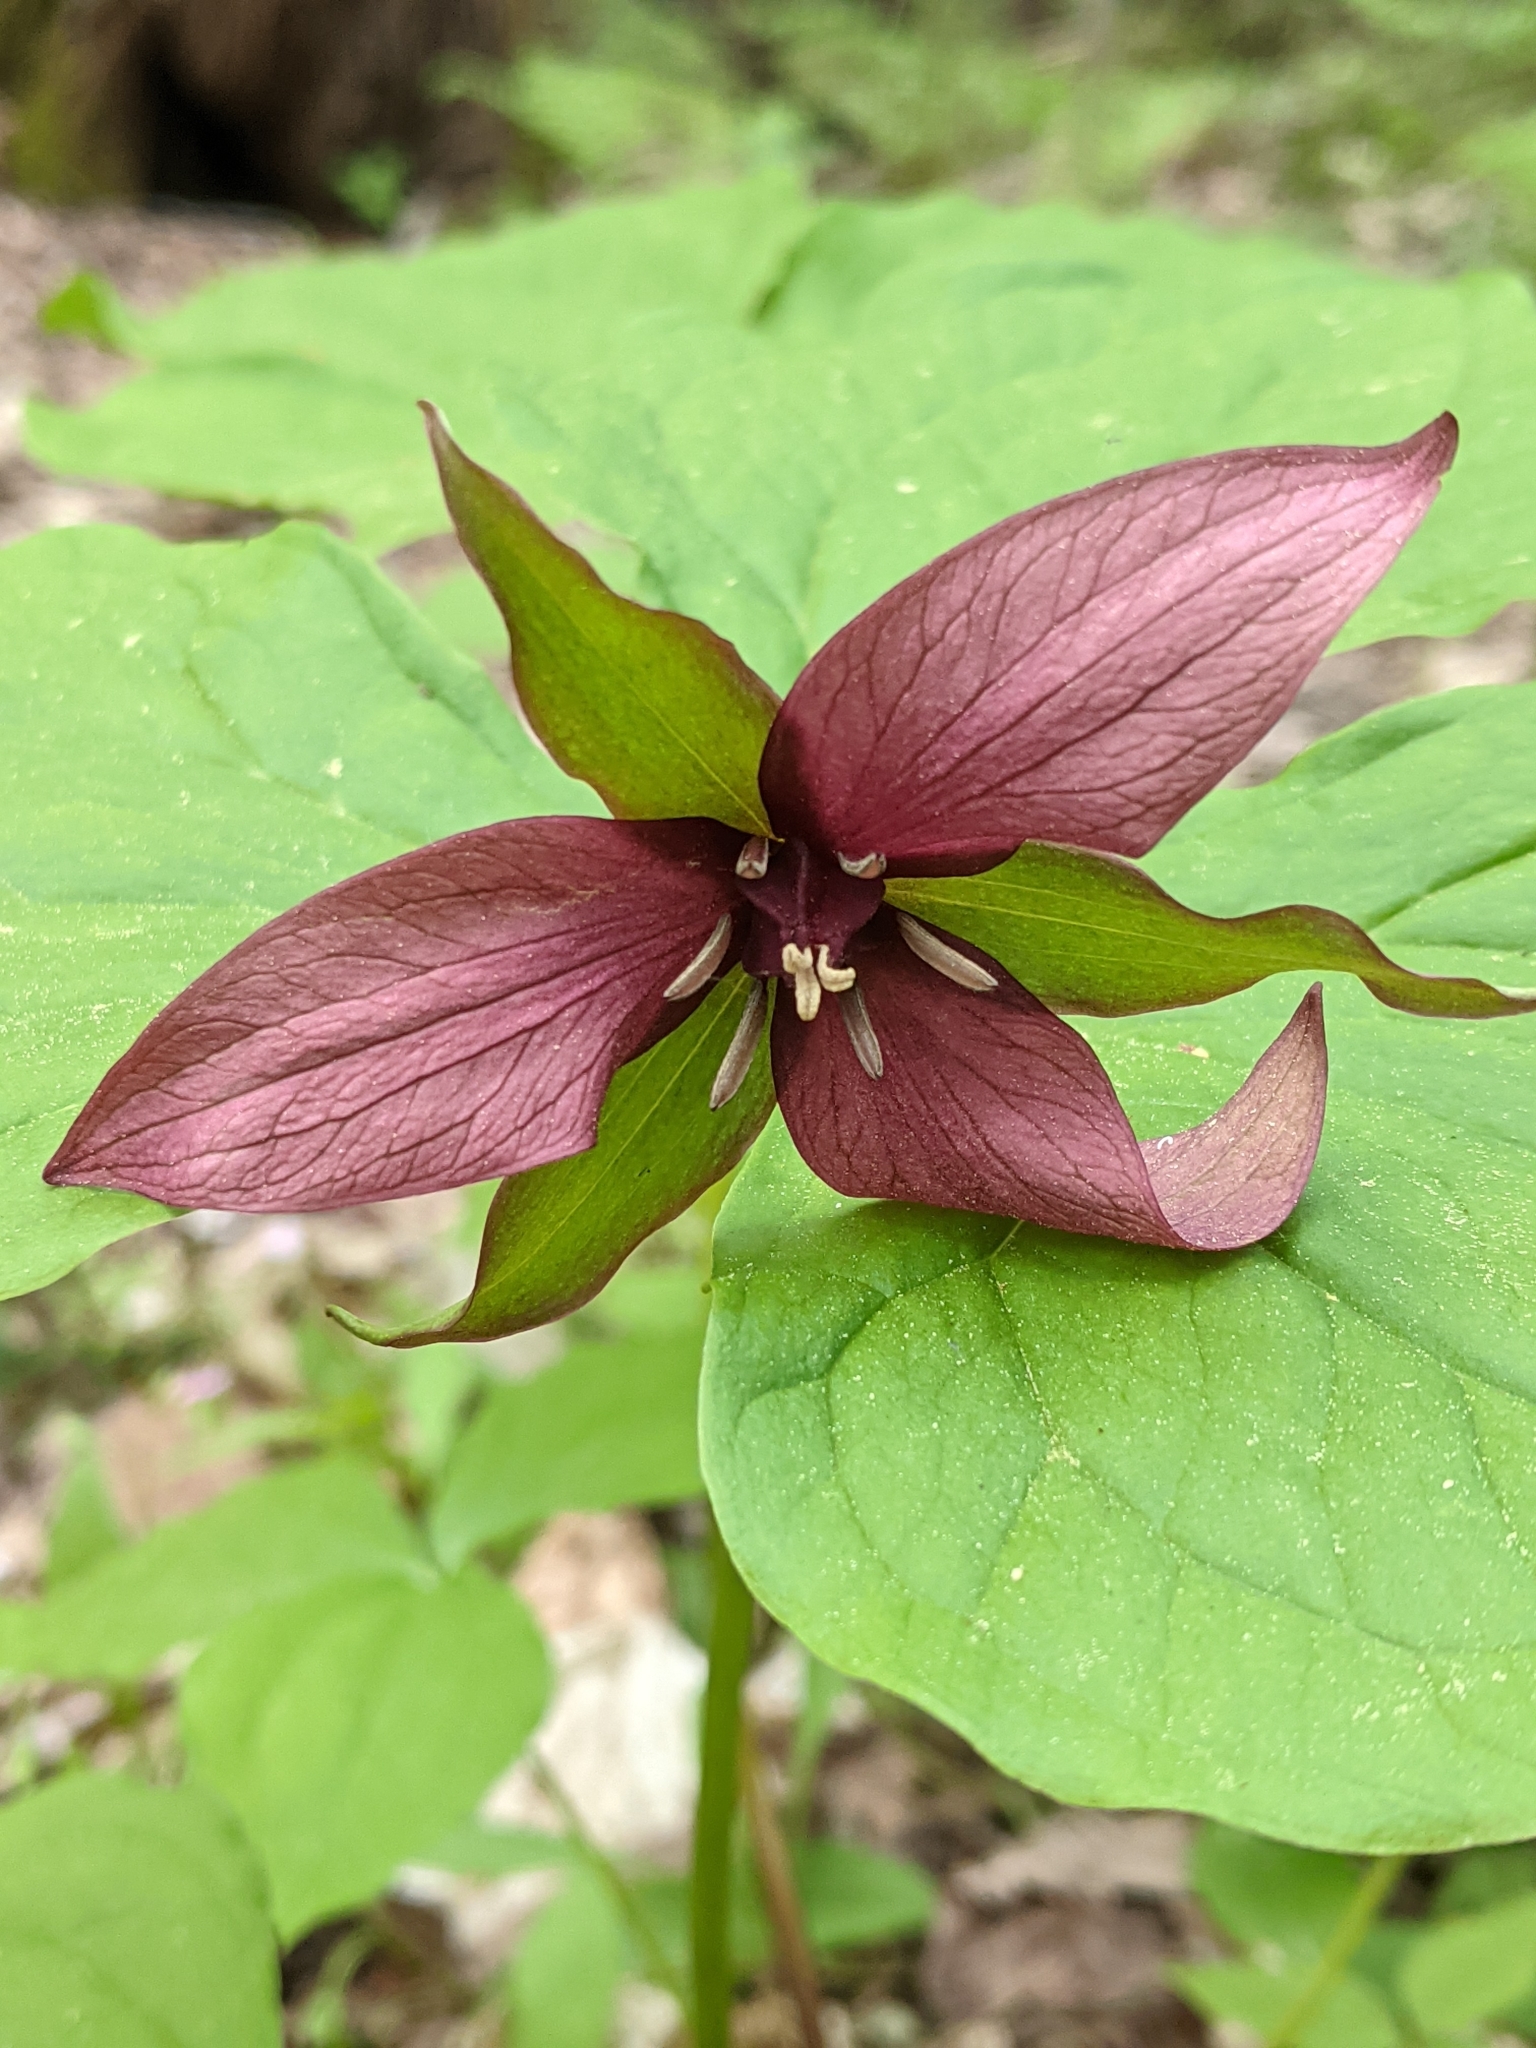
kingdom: Plantae
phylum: Tracheophyta
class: Liliopsida
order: Liliales
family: Melanthiaceae
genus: Trillium
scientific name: Trillium erectum
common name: Purple trillium
